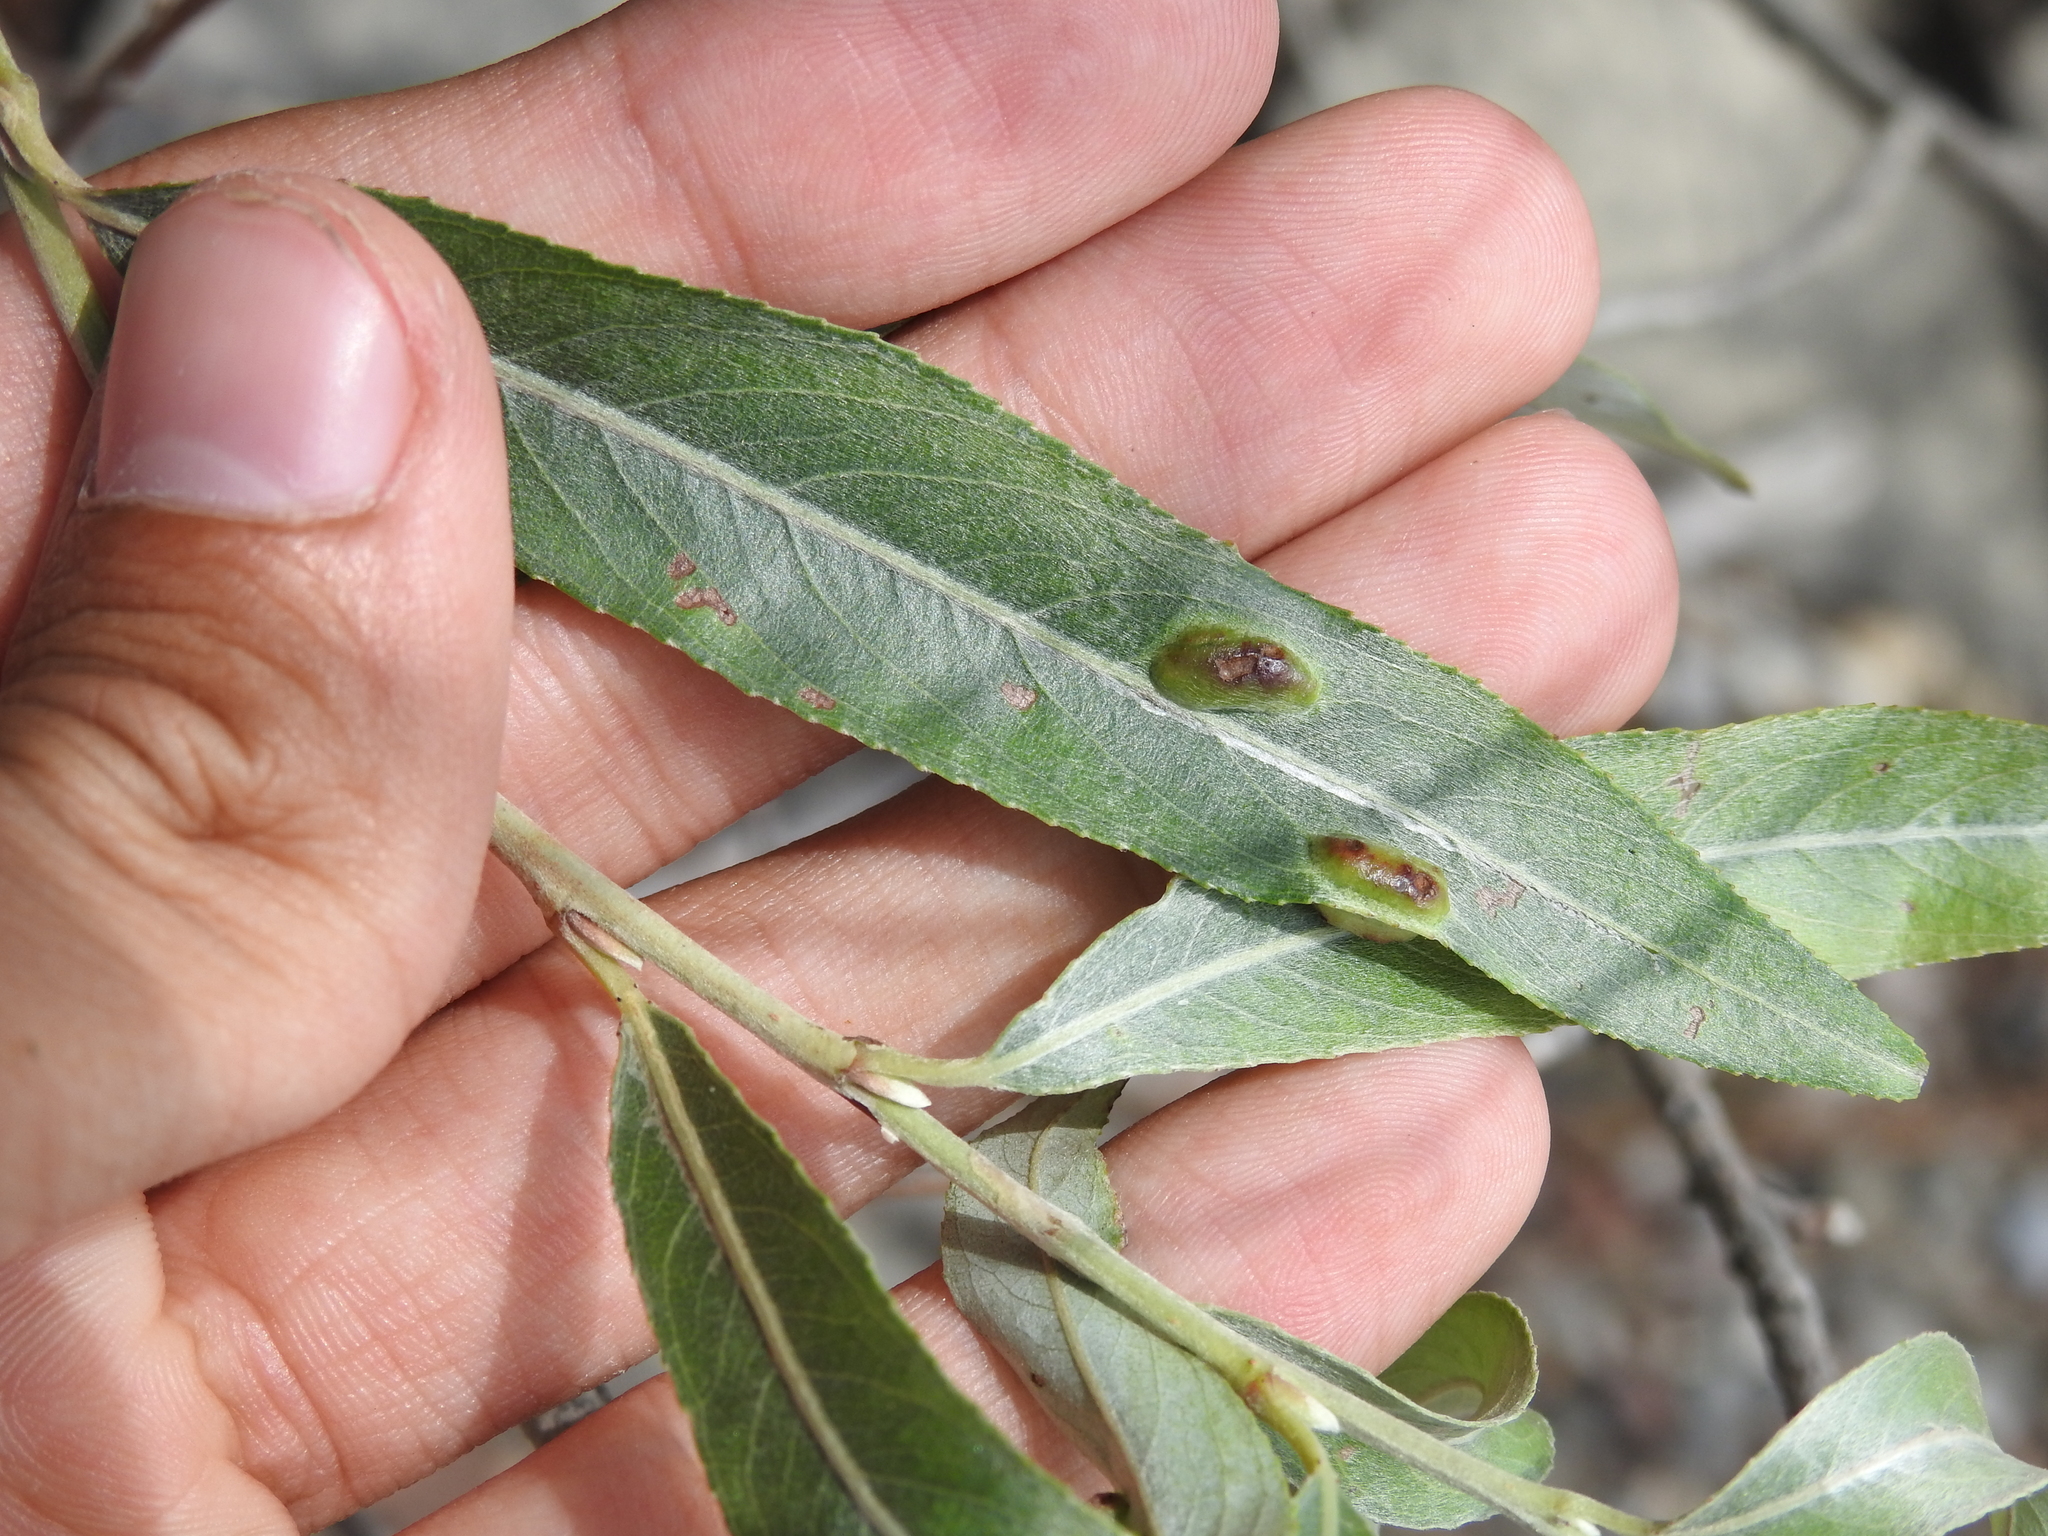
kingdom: Animalia
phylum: Arthropoda
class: Insecta
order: Hymenoptera
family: Tenthredinidae
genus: Pontania
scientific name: Pontania proxima
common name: Common sawfly
